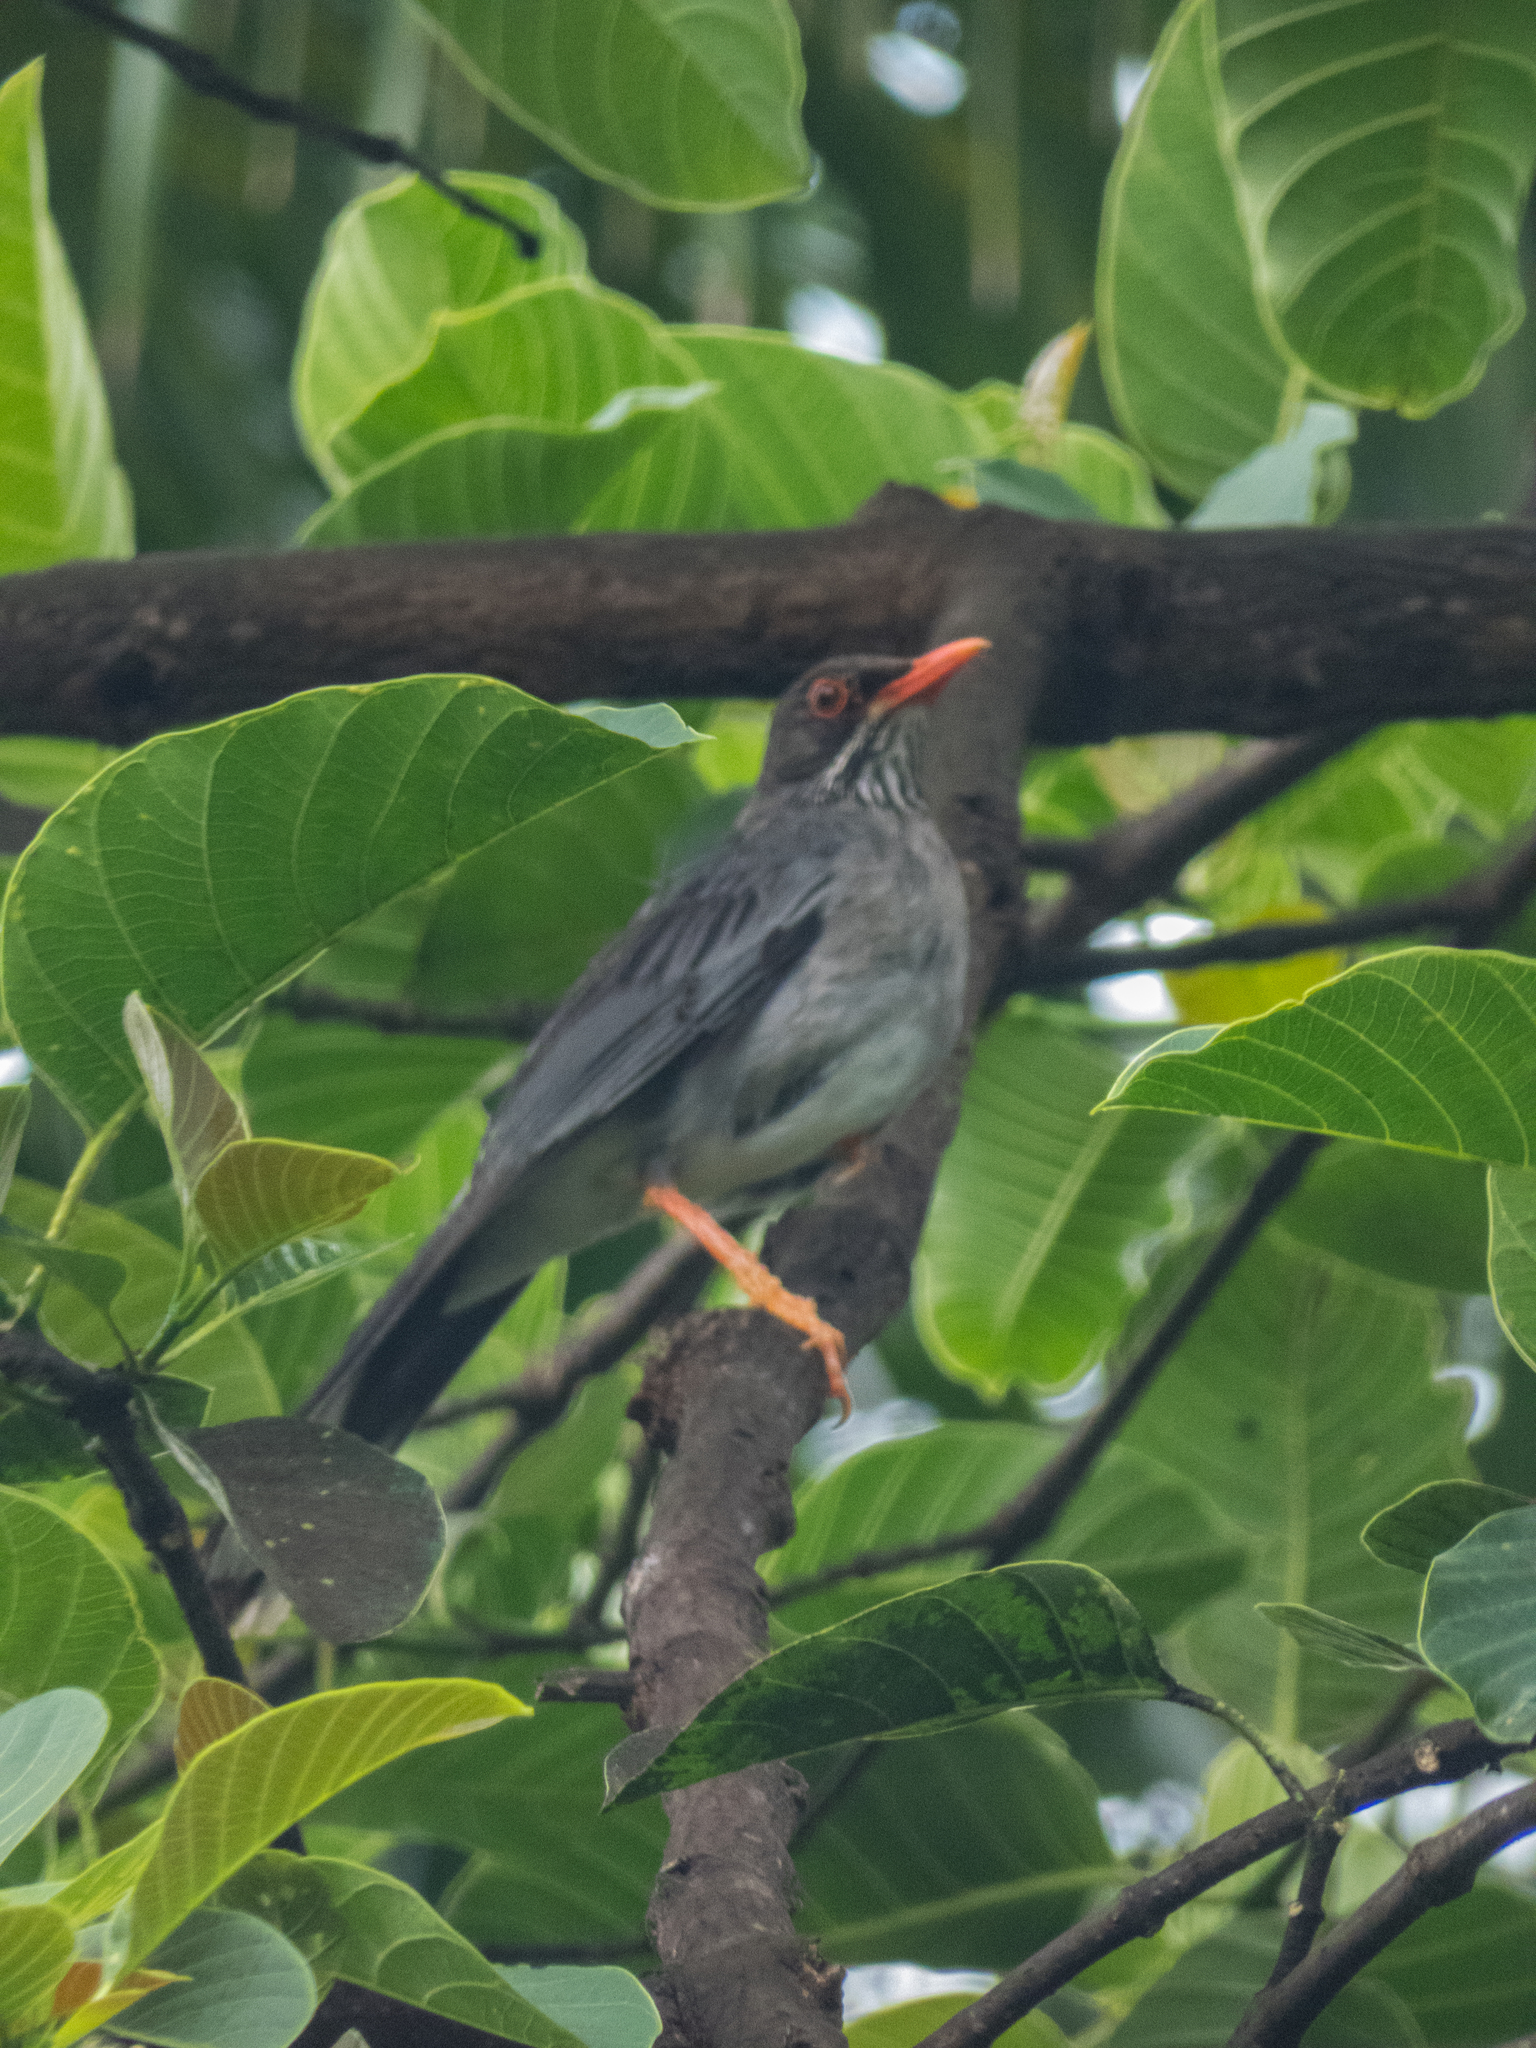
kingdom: Animalia
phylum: Chordata
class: Aves
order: Passeriformes
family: Turdidae
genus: Turdus
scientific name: Turdus plumbeus
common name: Red-legged thrush
